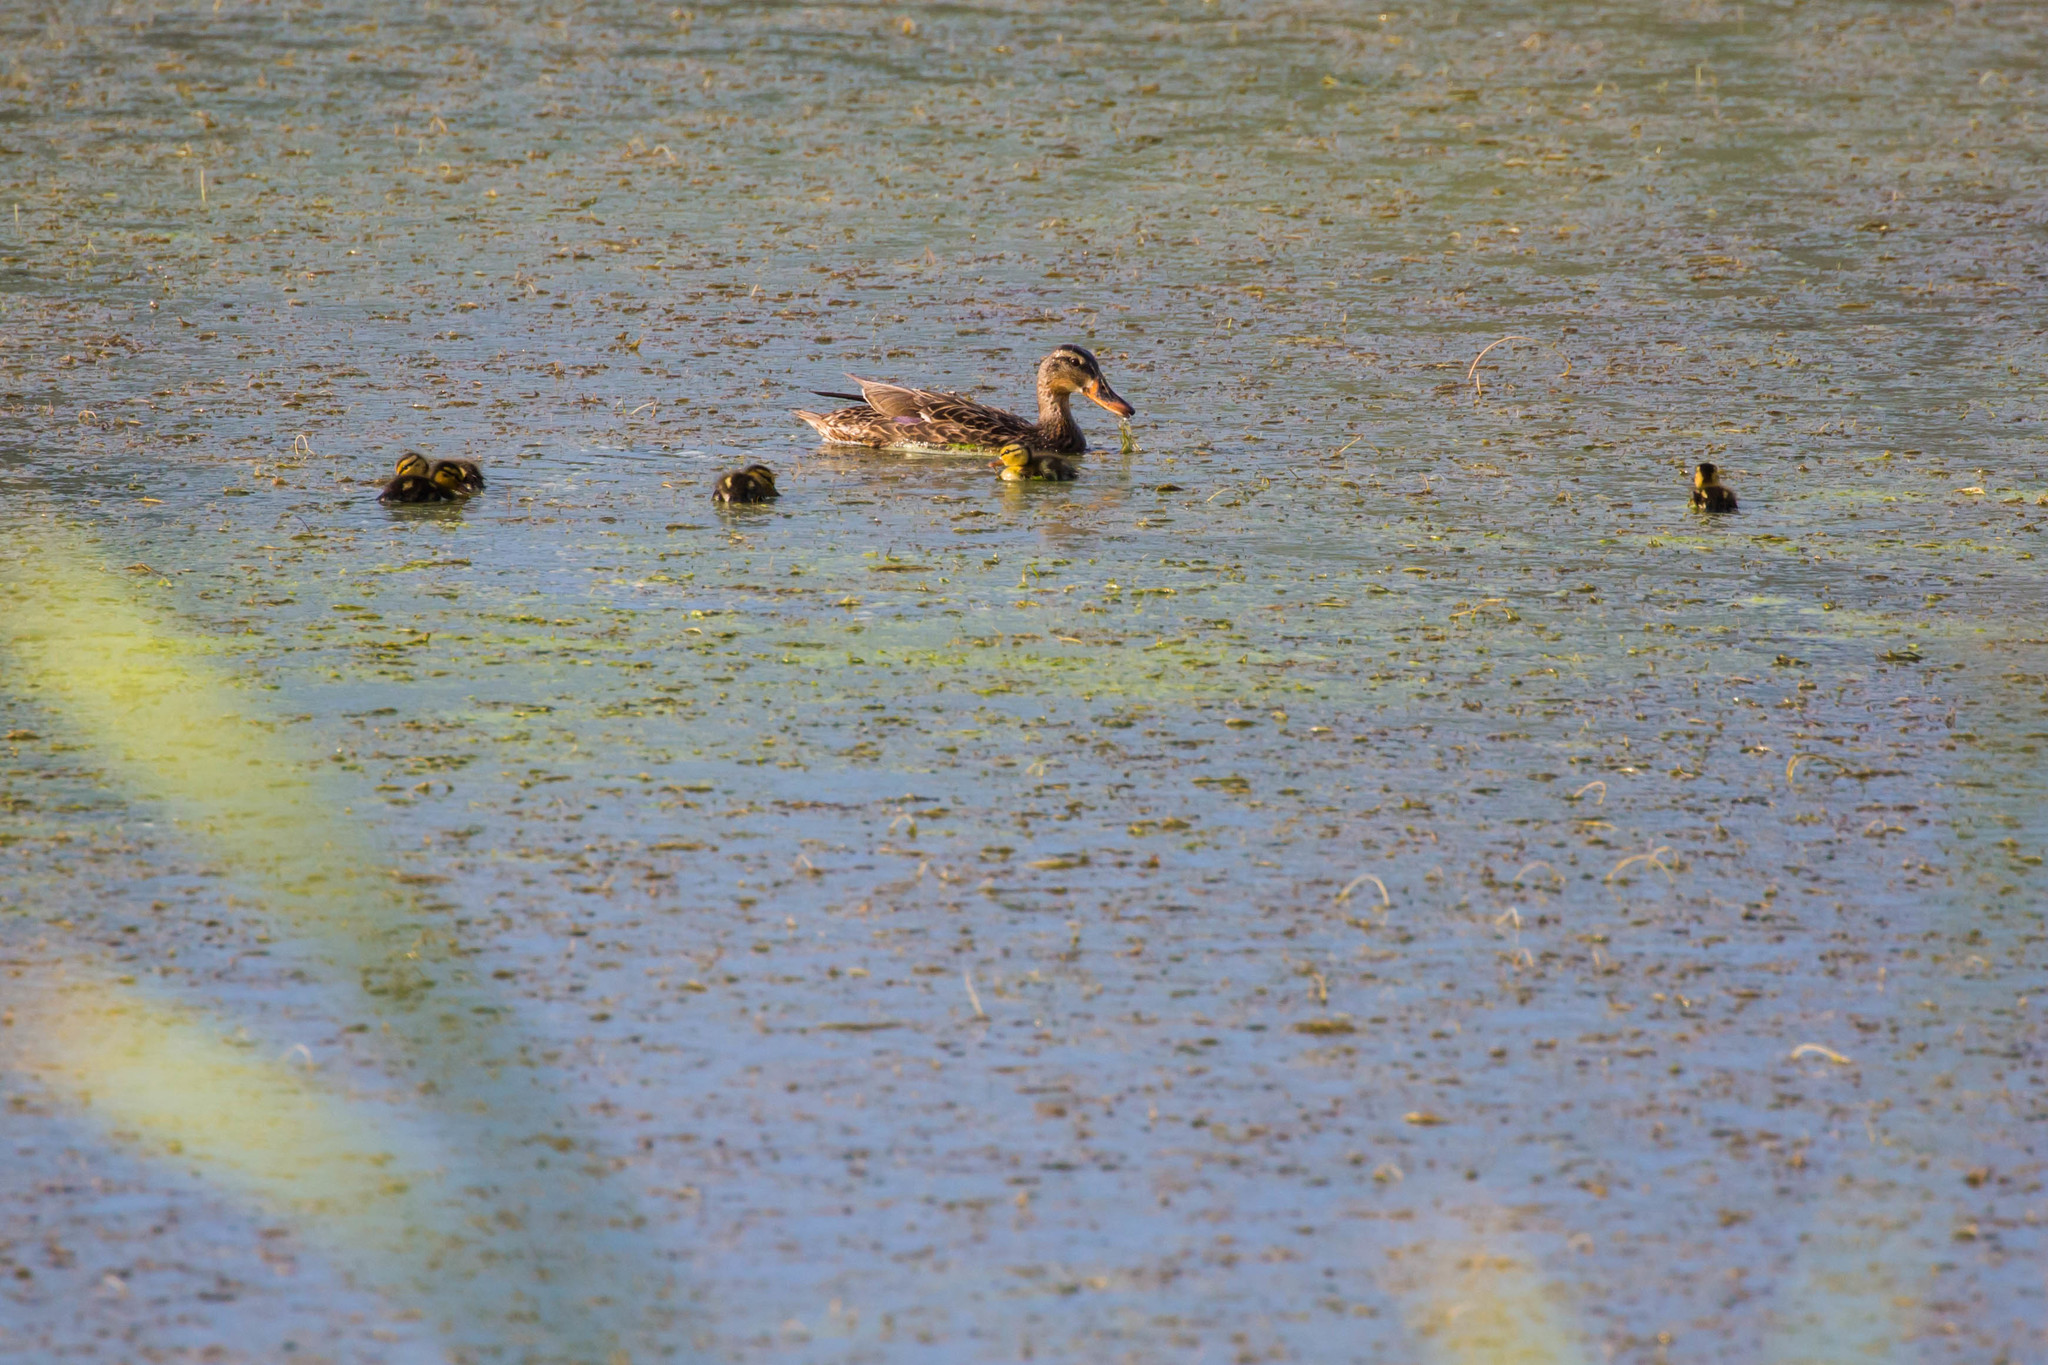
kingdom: Animalia
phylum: Chordata
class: Aves
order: Anseriformes
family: Anatidae
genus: Anas
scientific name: Anas platyrhynchos
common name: Mallard
